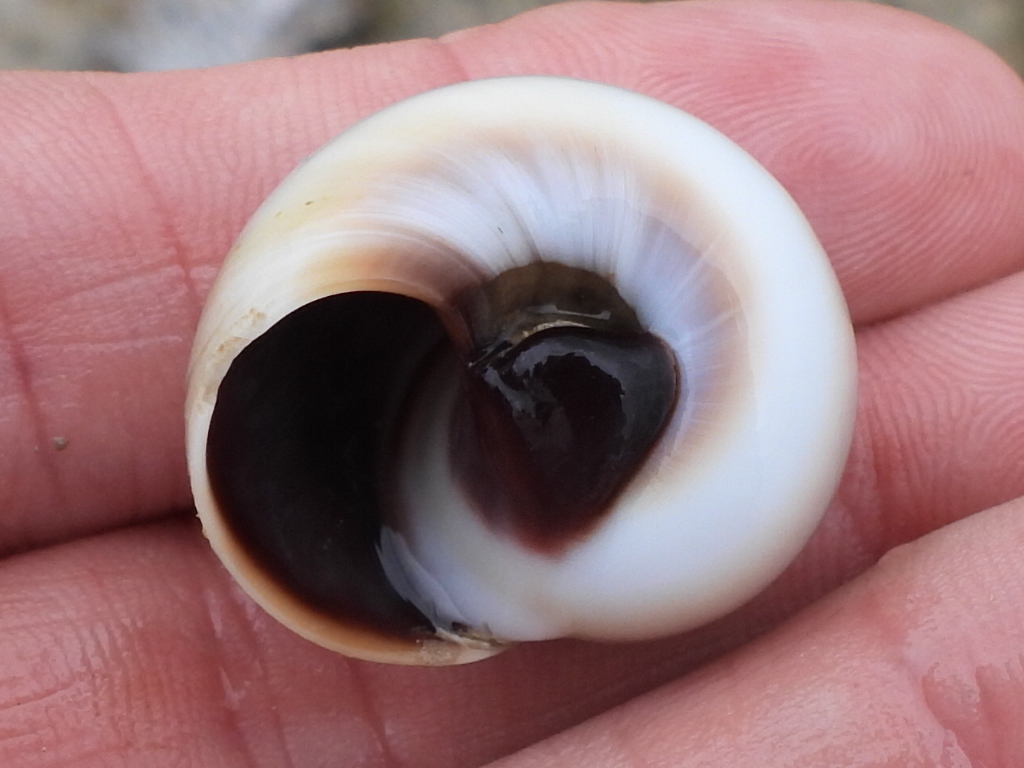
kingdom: Animalia
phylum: Mollusca
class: Gastropoda
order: Littorinimorpha
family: Naticidae
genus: Neverita
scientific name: Neverita delessertiana
